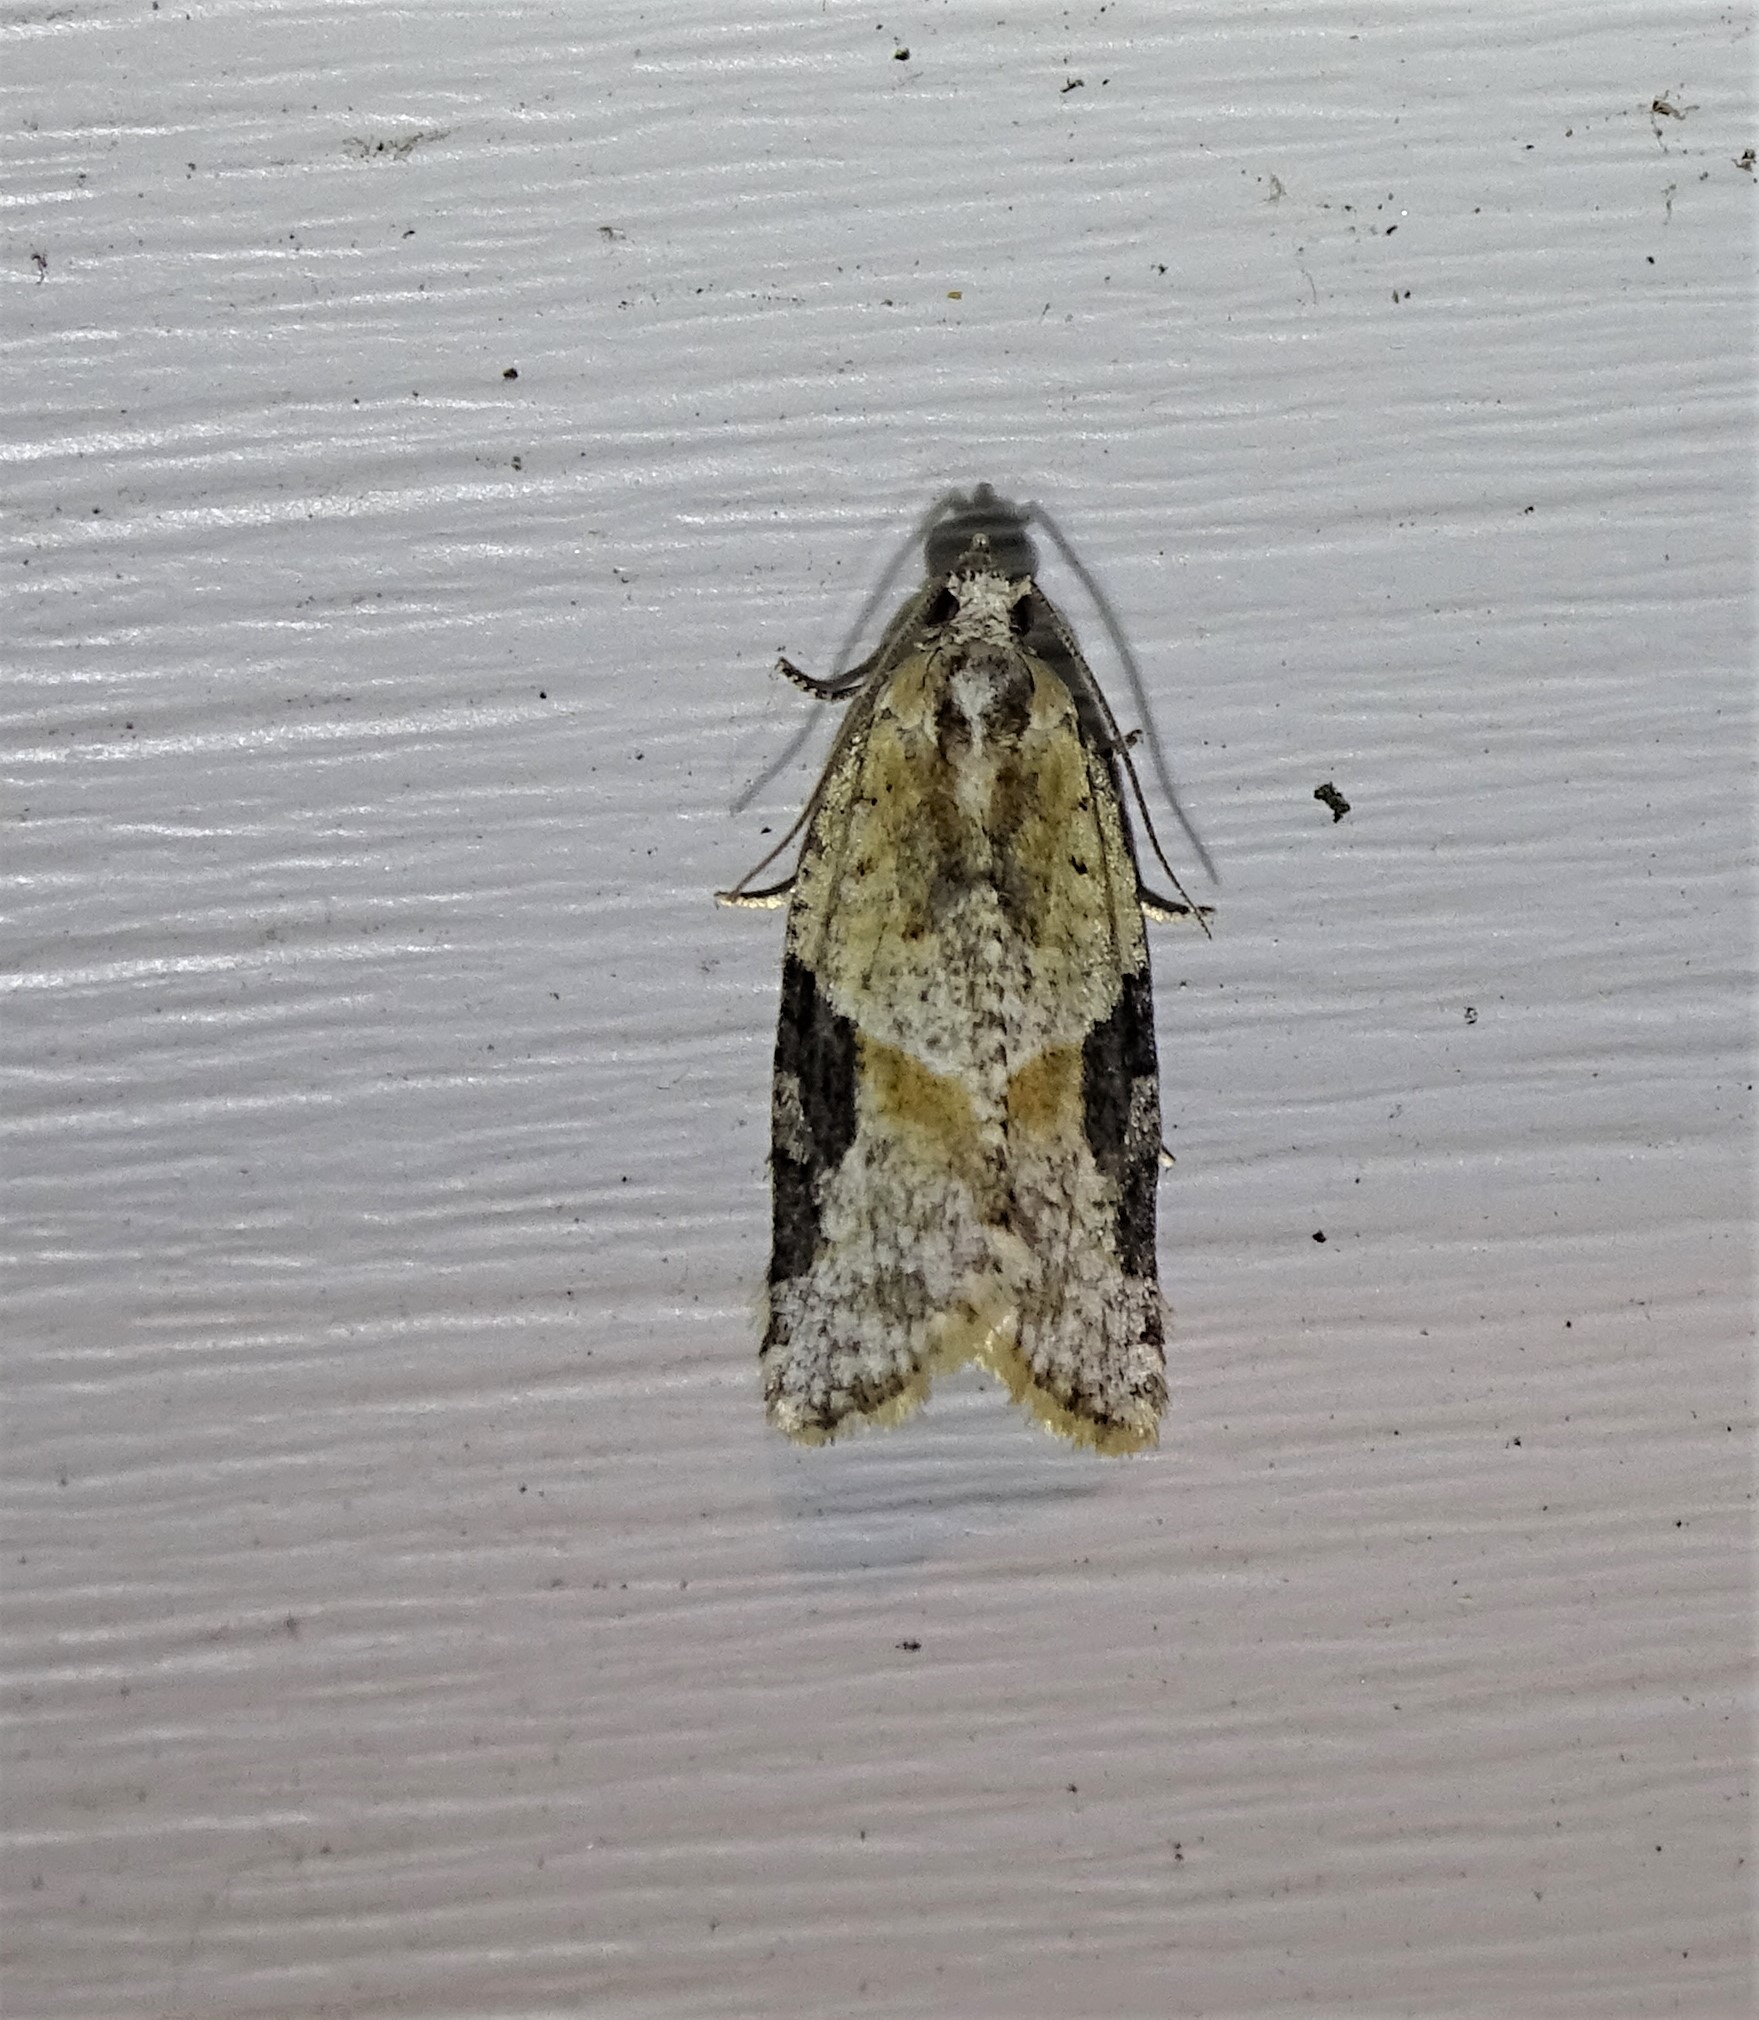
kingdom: Animalia
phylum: Arthropoda
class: Insecta
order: Lepidoptera
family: Tortricidae
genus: Argyrotaenia
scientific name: Argyrotaenia mariana
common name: Gray-banded leafroller moth
